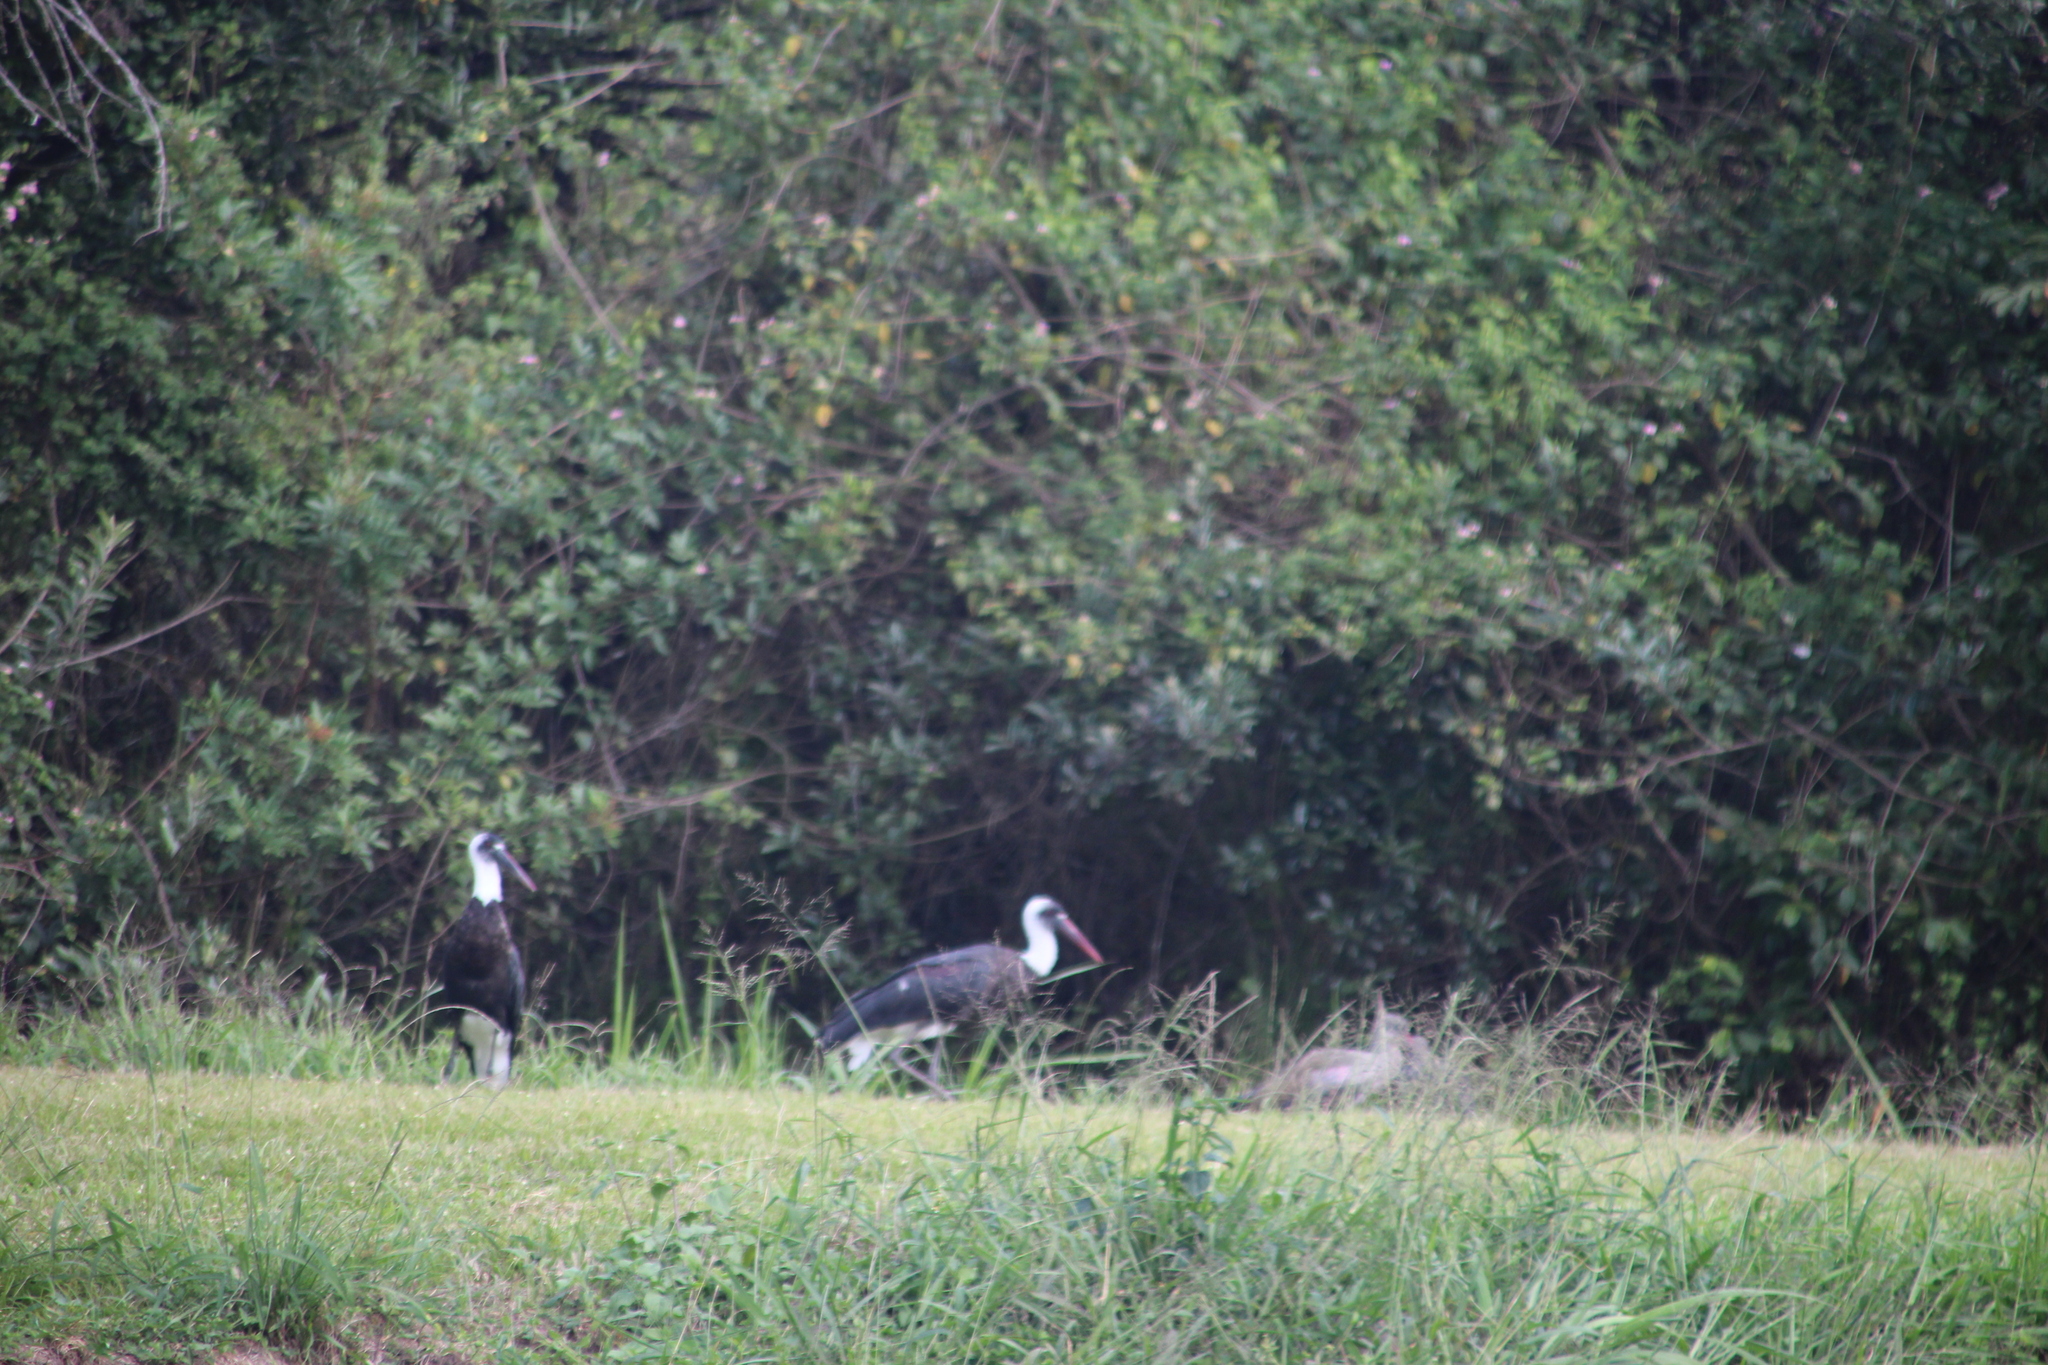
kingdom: Animalia
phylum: Chordata
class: Aves
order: Ciconiiformes
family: Ciconiidae
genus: Ciconia
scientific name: Ciconia microscelis
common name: African woollyneck
